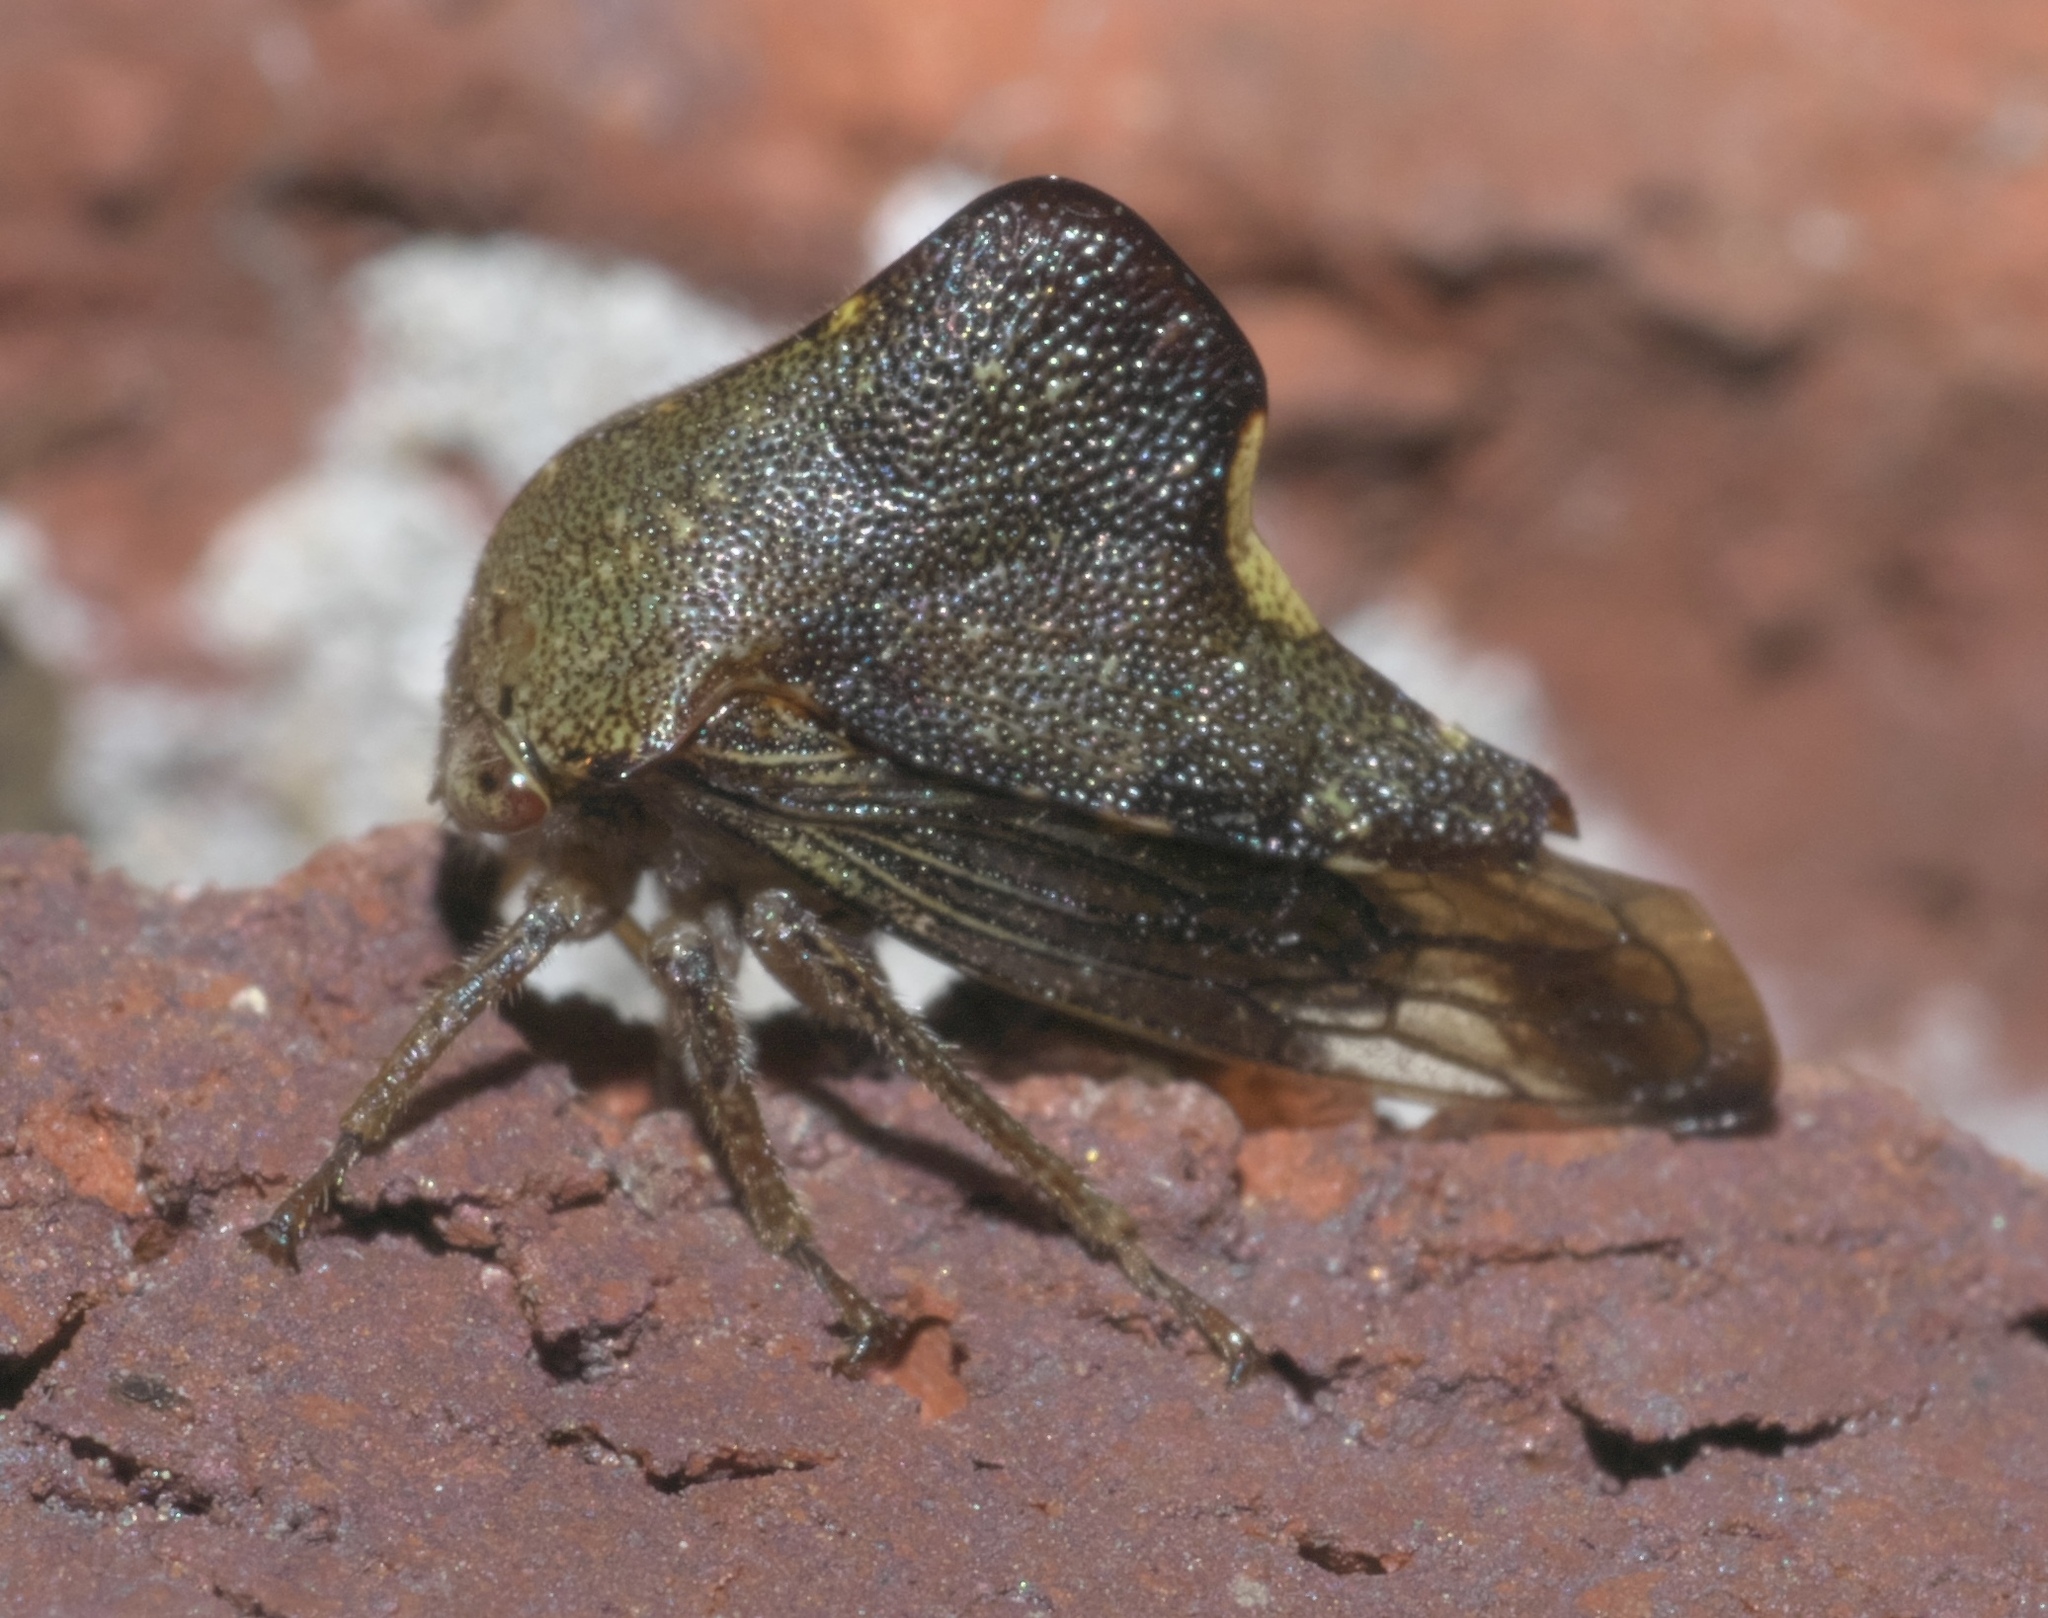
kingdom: Animalia
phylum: Arthropoda
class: Insecta
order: Hemiptera
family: Membracidae
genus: Telamona
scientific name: Telamona monticola
